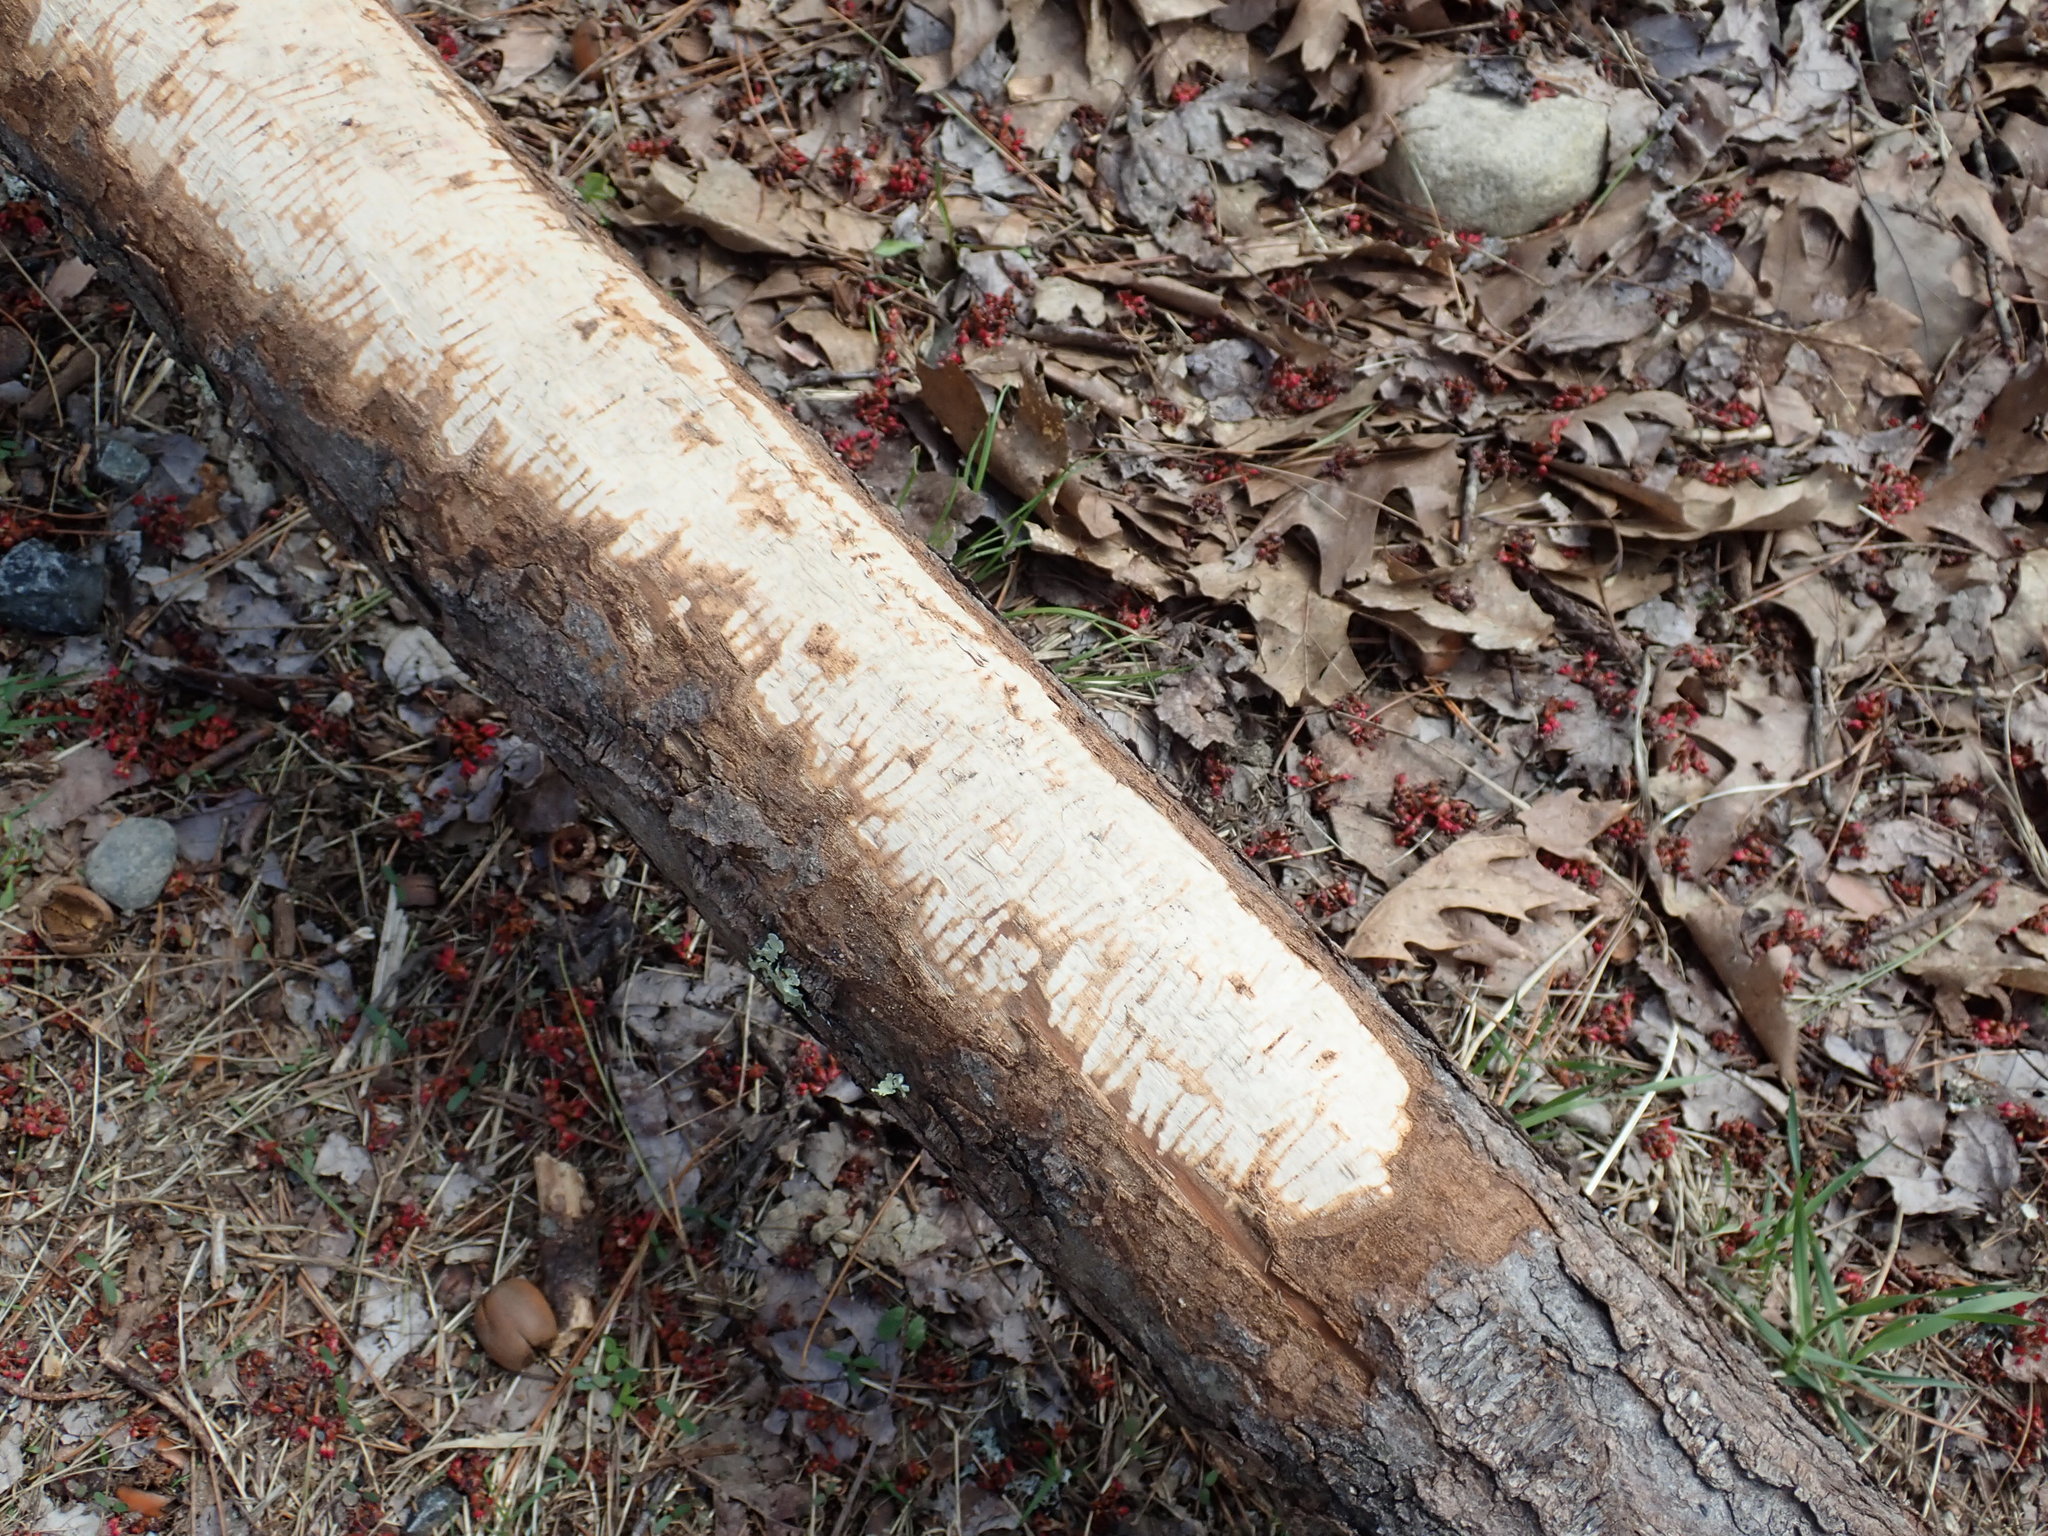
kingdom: Animalia
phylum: Chordata
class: Mammalia
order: Rodentia
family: Castoridae
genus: Castor
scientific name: Castor canadensis
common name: American beaver
